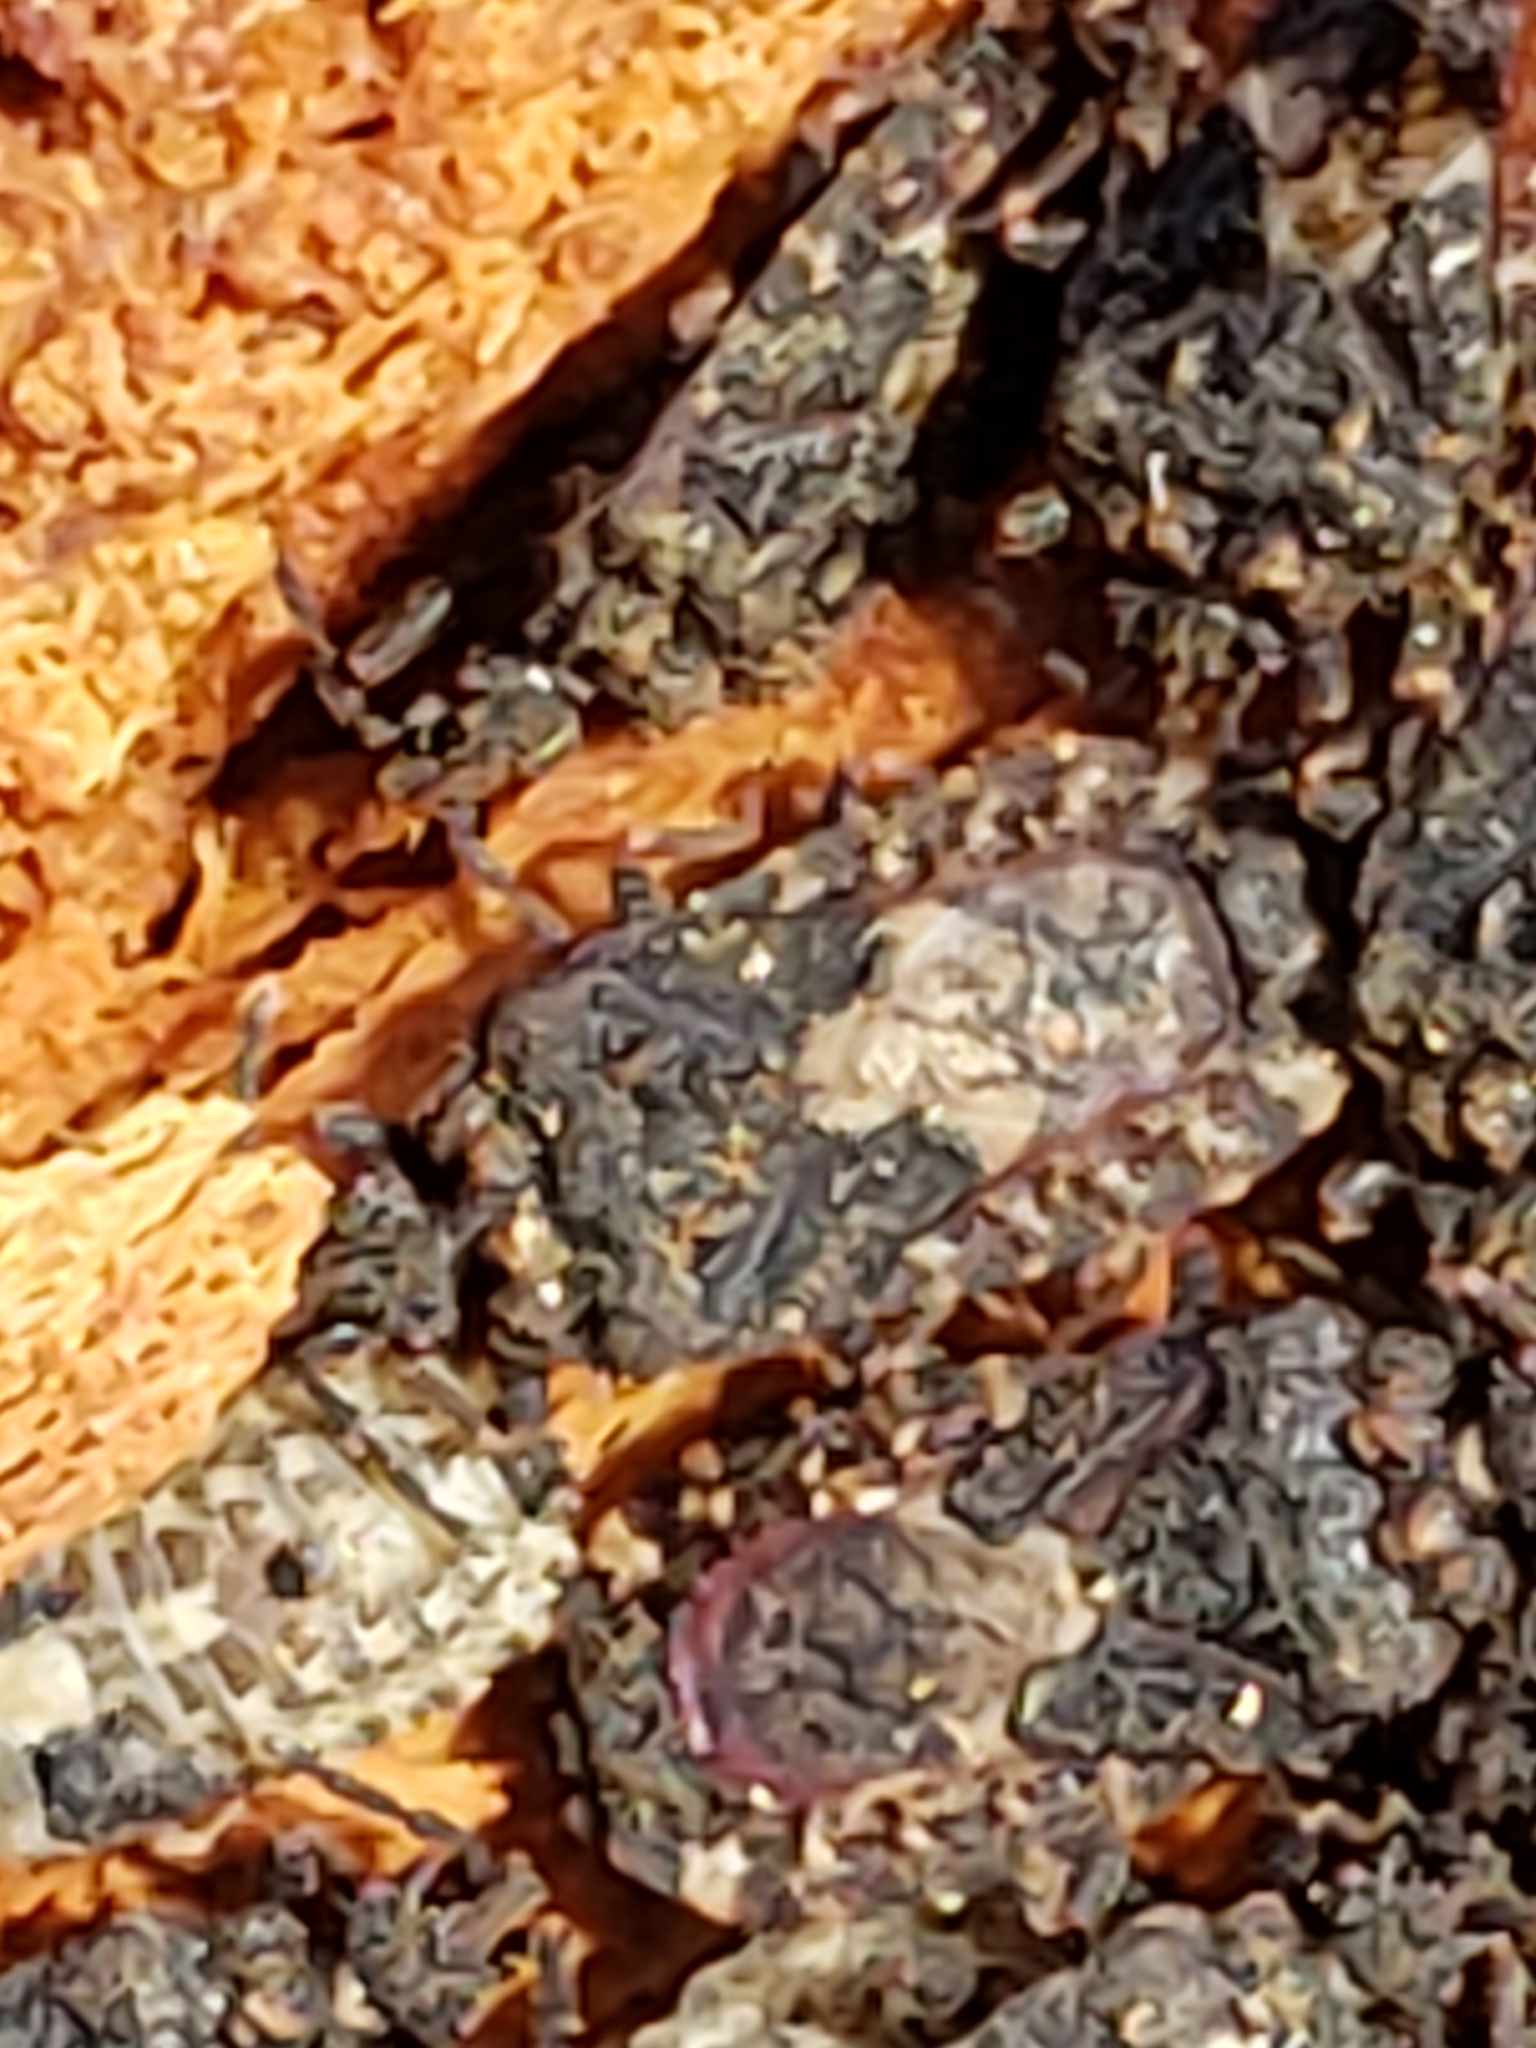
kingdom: Animalia
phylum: Arthropoda
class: Insecta
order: Hemiptera
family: Aradidae
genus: Mezira
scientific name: Mezira
